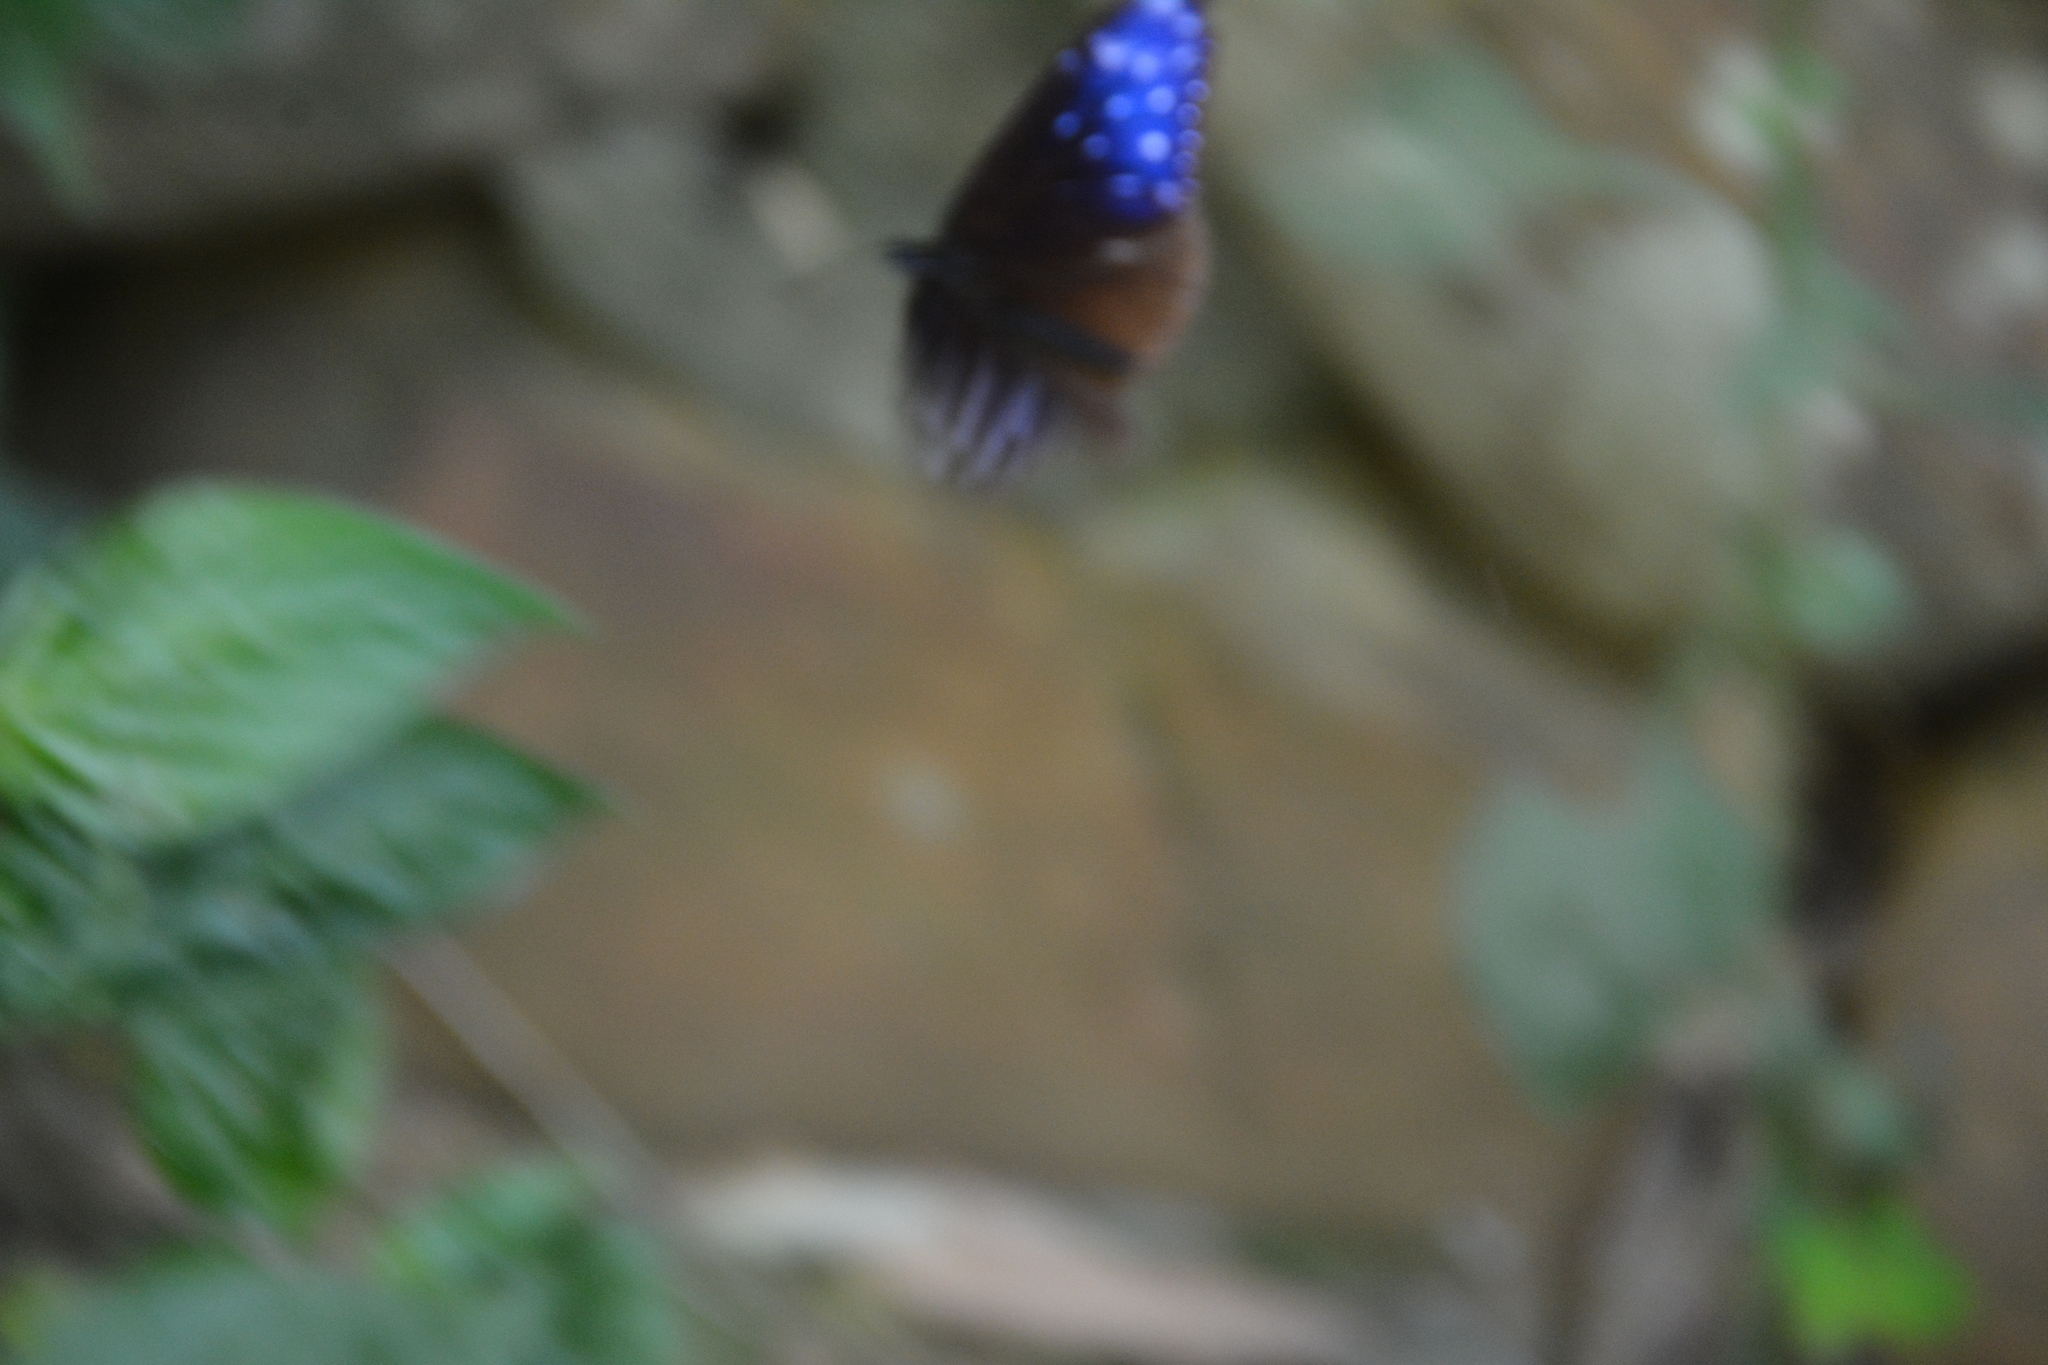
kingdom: Animalia
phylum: Arthropoda
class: Insecta
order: Lepidoptera
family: Nymphalidae
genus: Euploea
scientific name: Euploea mulciber
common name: Striped blue crow butterfly
